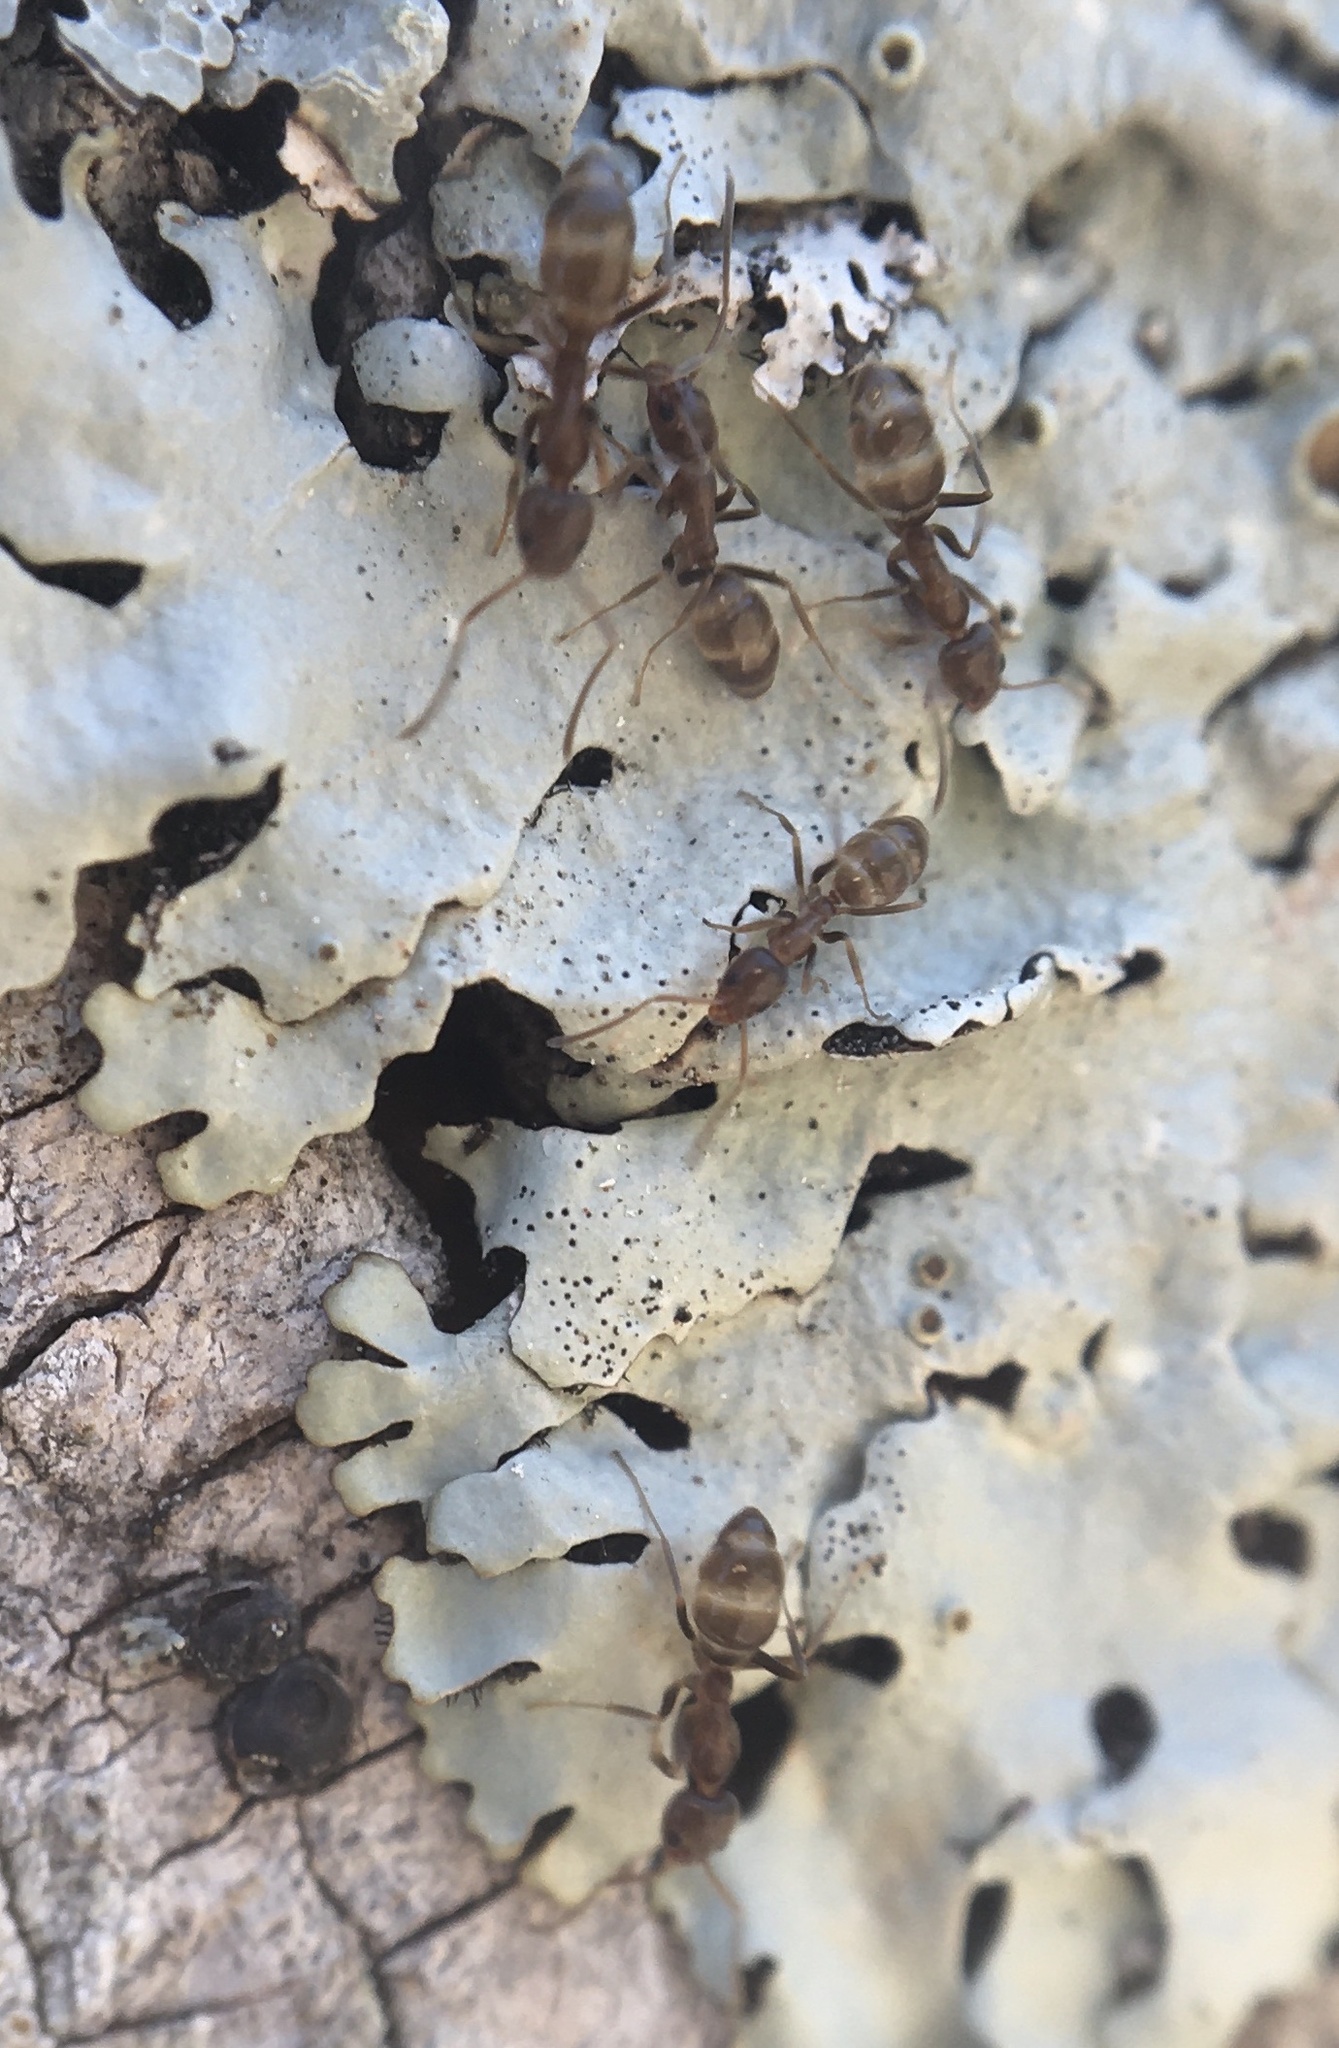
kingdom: Animalia
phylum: Arthropoda
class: Insecta
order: Hymenoptera
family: Formicidae
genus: Linepithema
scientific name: Linepithema humile
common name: Argentine ant
